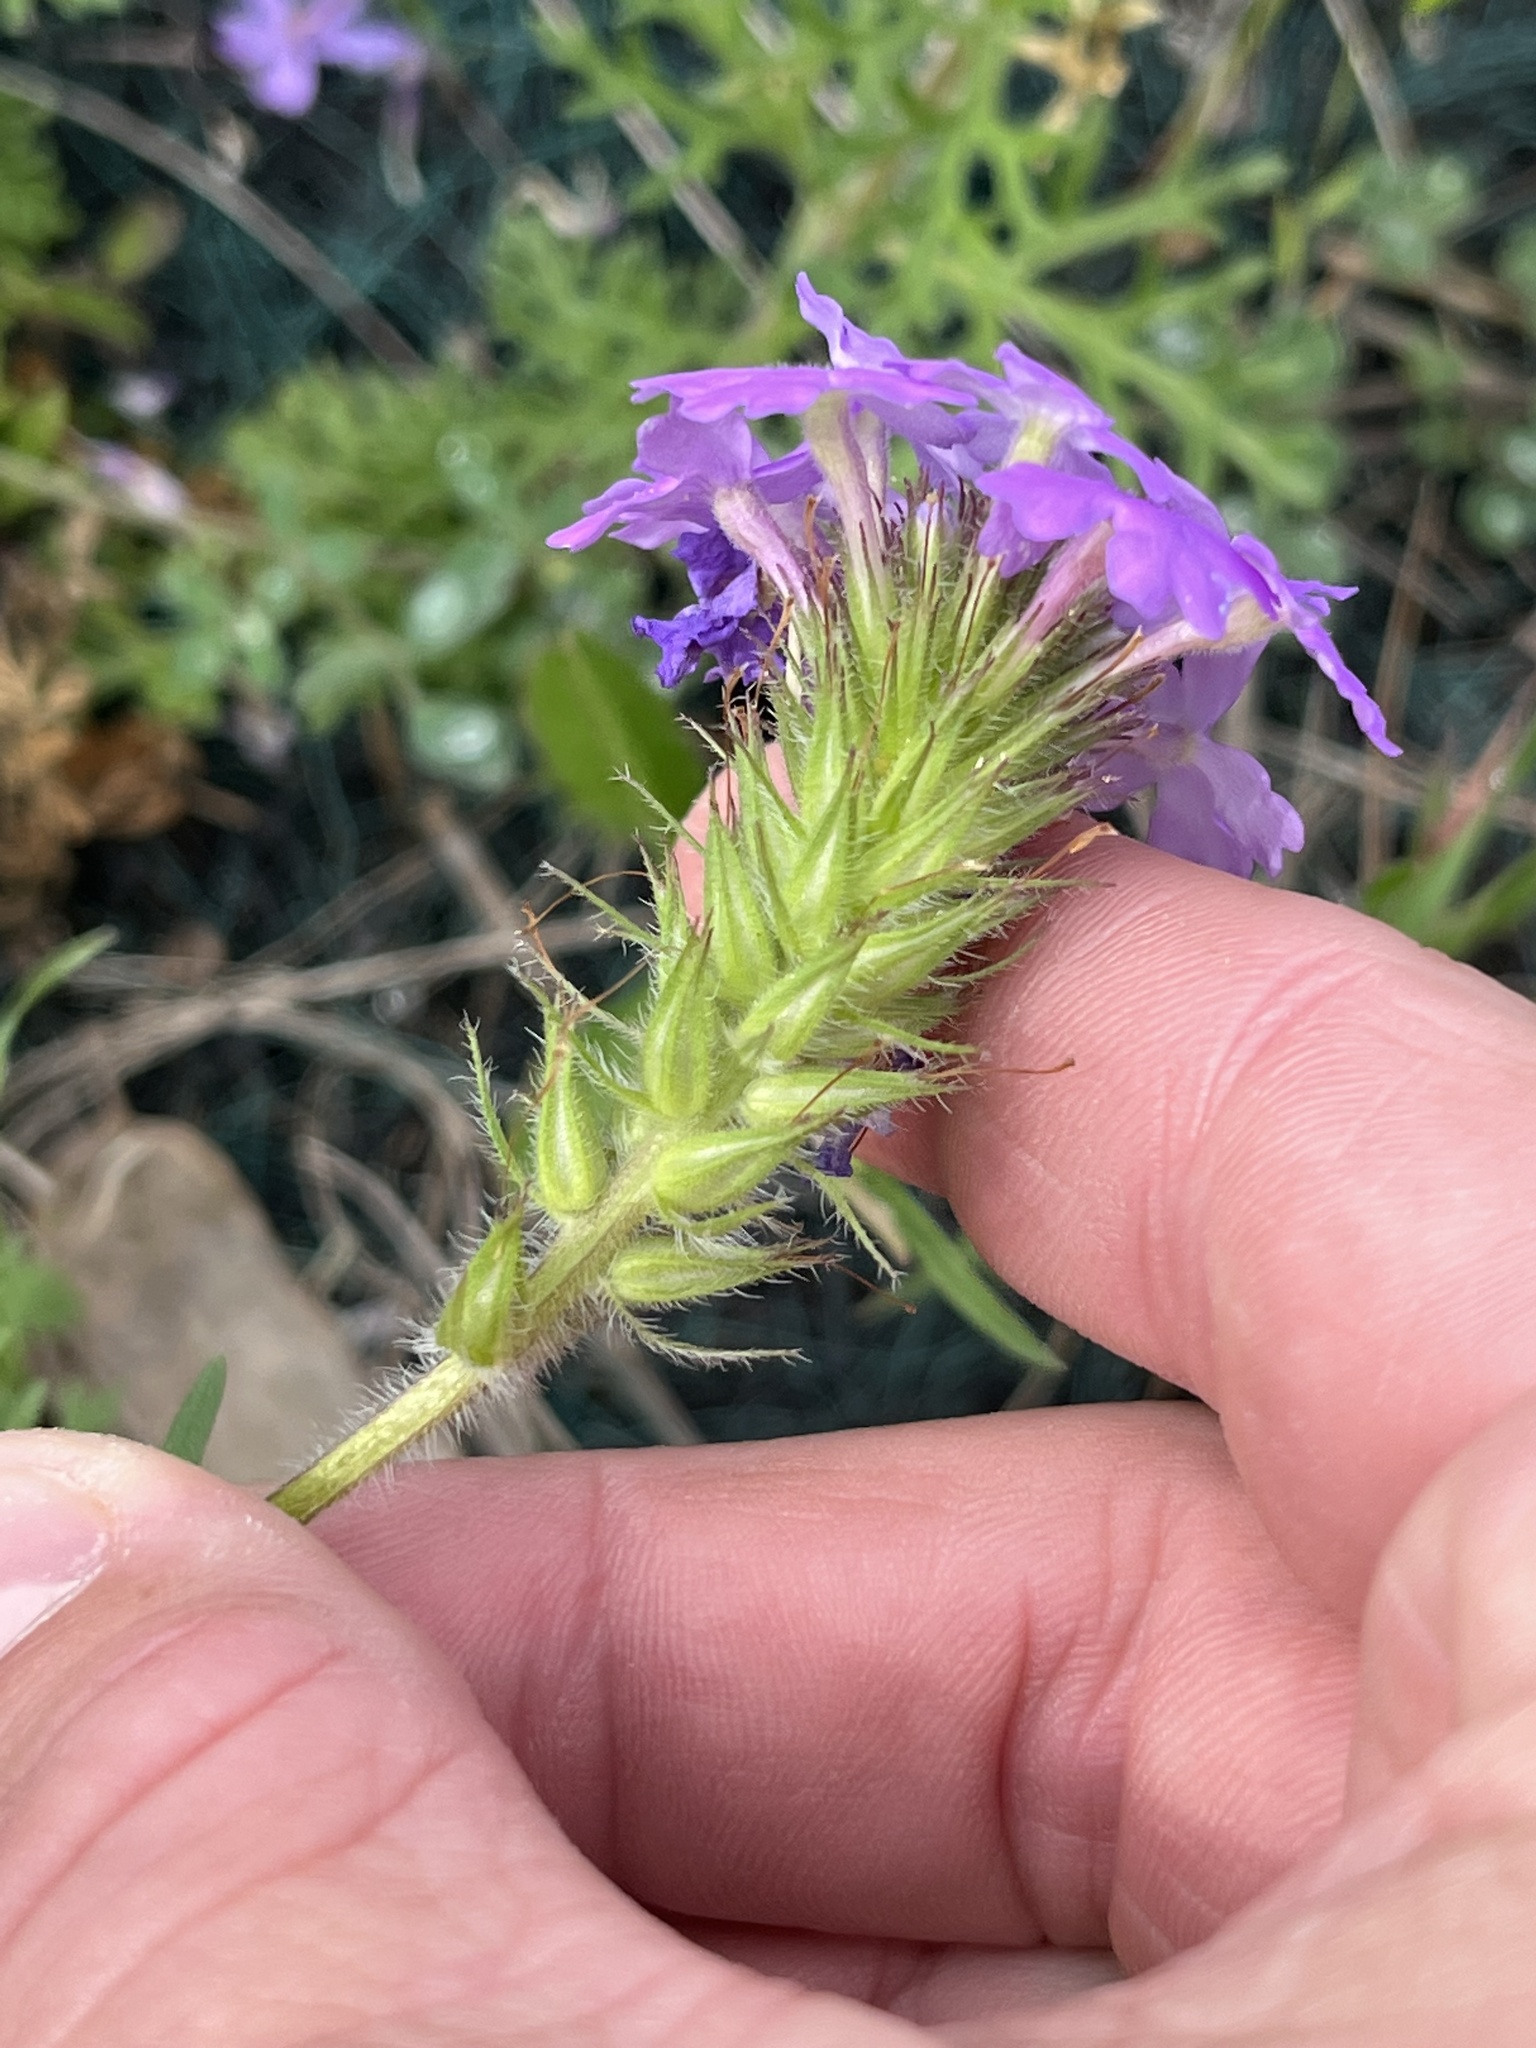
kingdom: Plantae
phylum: Tracheophyta
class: Magnoliopsida
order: Lamiales
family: Verbenaceae
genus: Verbena
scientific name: Verbena bipinnatifida
